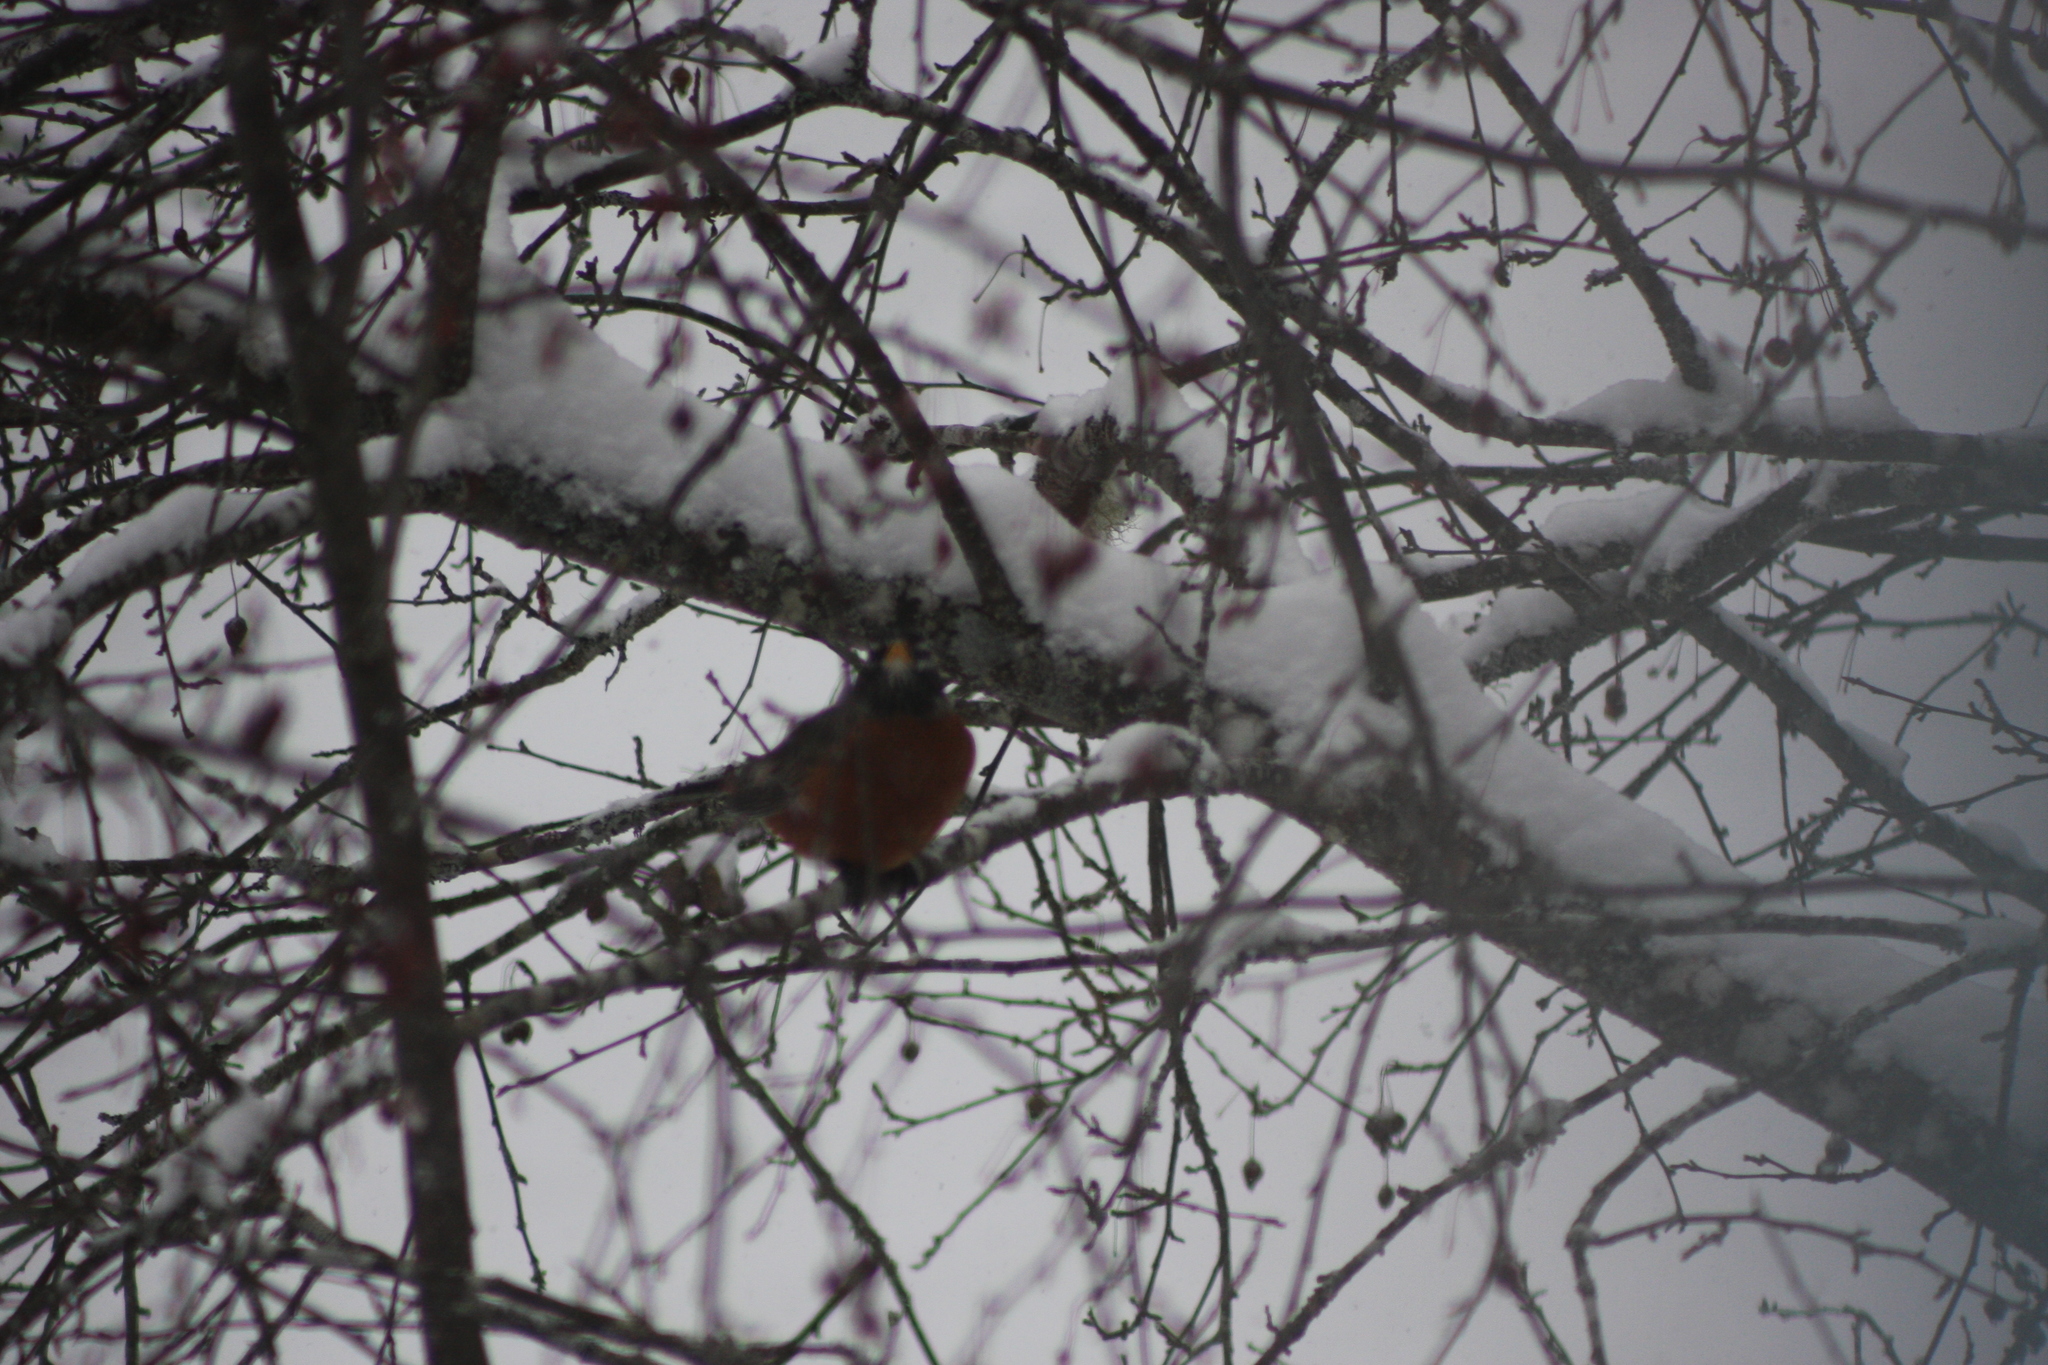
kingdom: Animalia
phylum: Chordata
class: Aves
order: Passeriformes
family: Turdidae
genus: Turdus
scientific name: Turdus migratorius
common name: American robin
